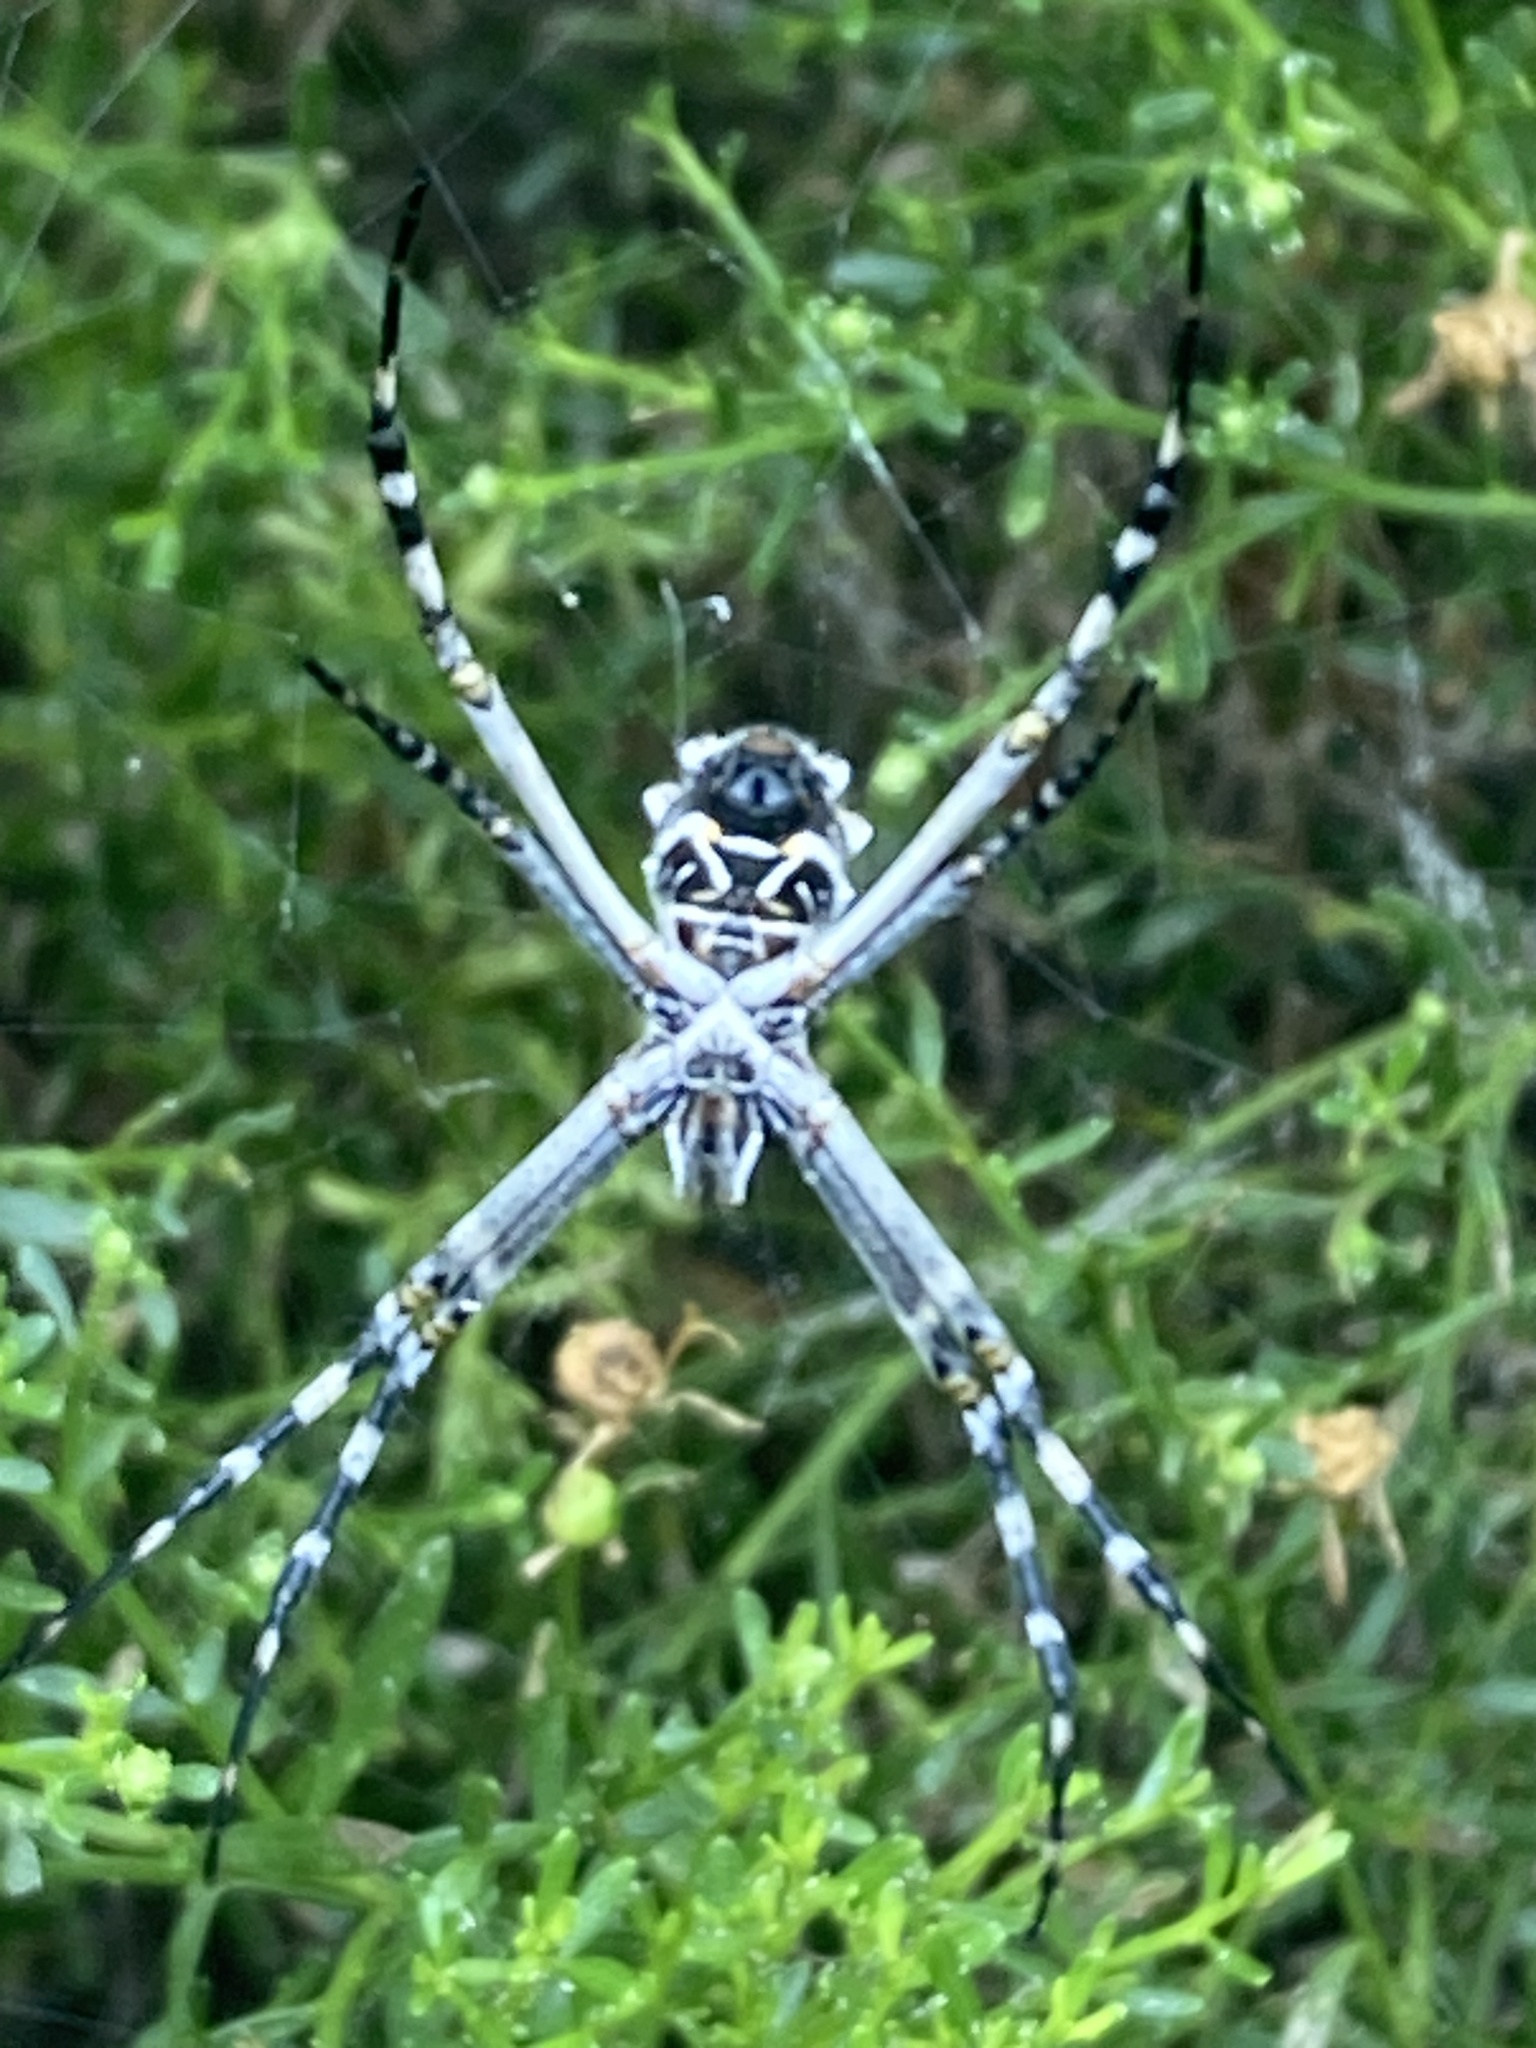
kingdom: Animalia
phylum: Arthropoda
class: Arachnida
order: Araneae
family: Araneidae
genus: Argiope
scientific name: Argiope argentata
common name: Orb weavers
